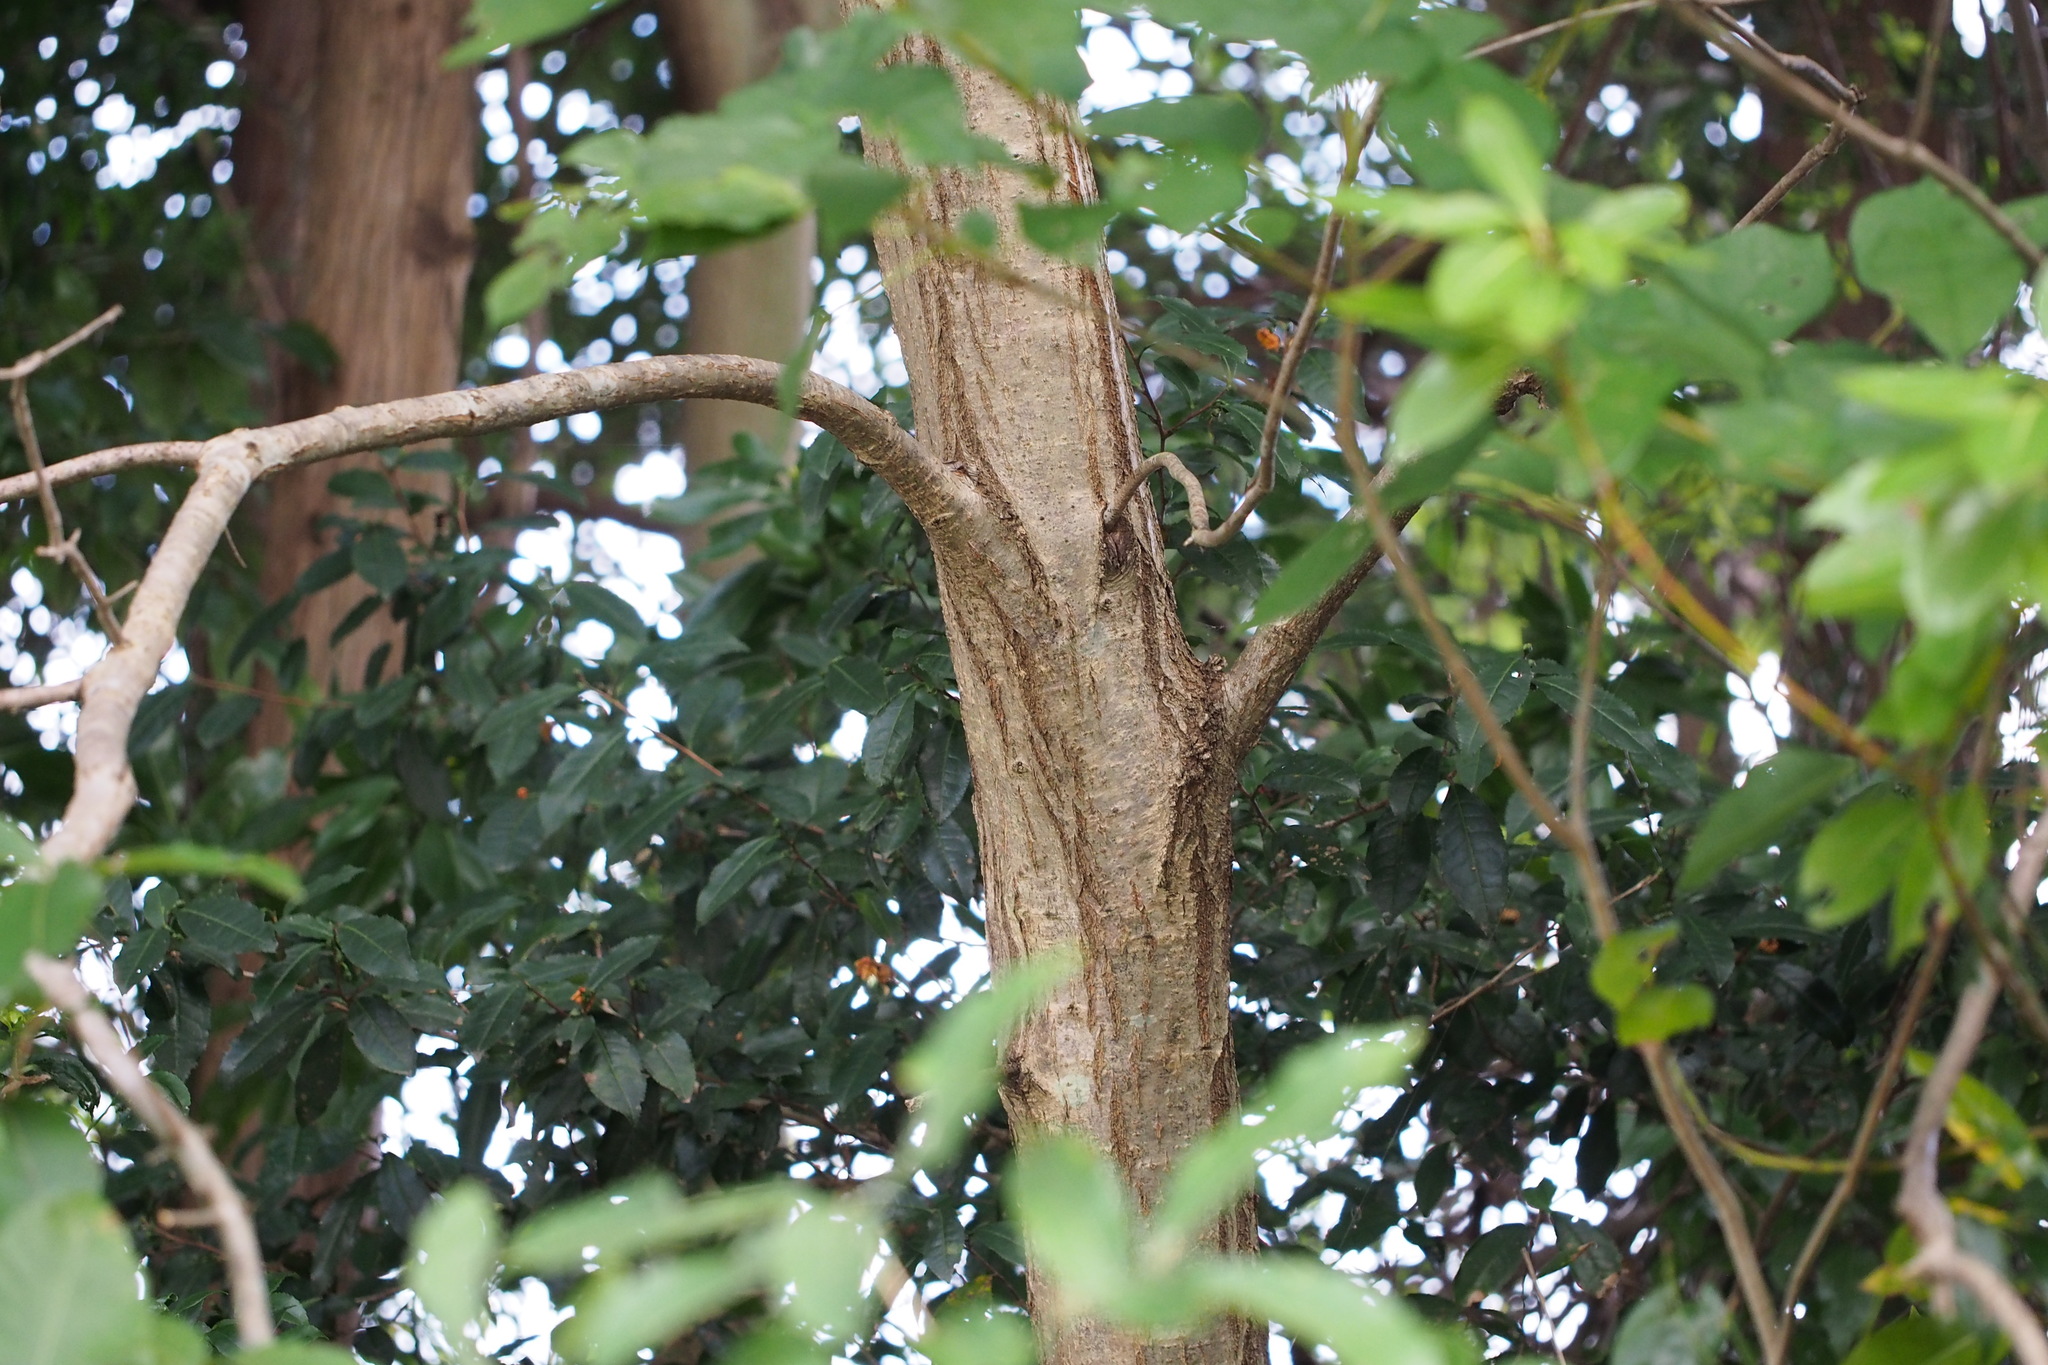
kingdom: Plantae
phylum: Tracheophyta
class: Magnoliopsida
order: Fagales
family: Fagaceae
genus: Quercus
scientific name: Quercus serrata
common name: Bao li
